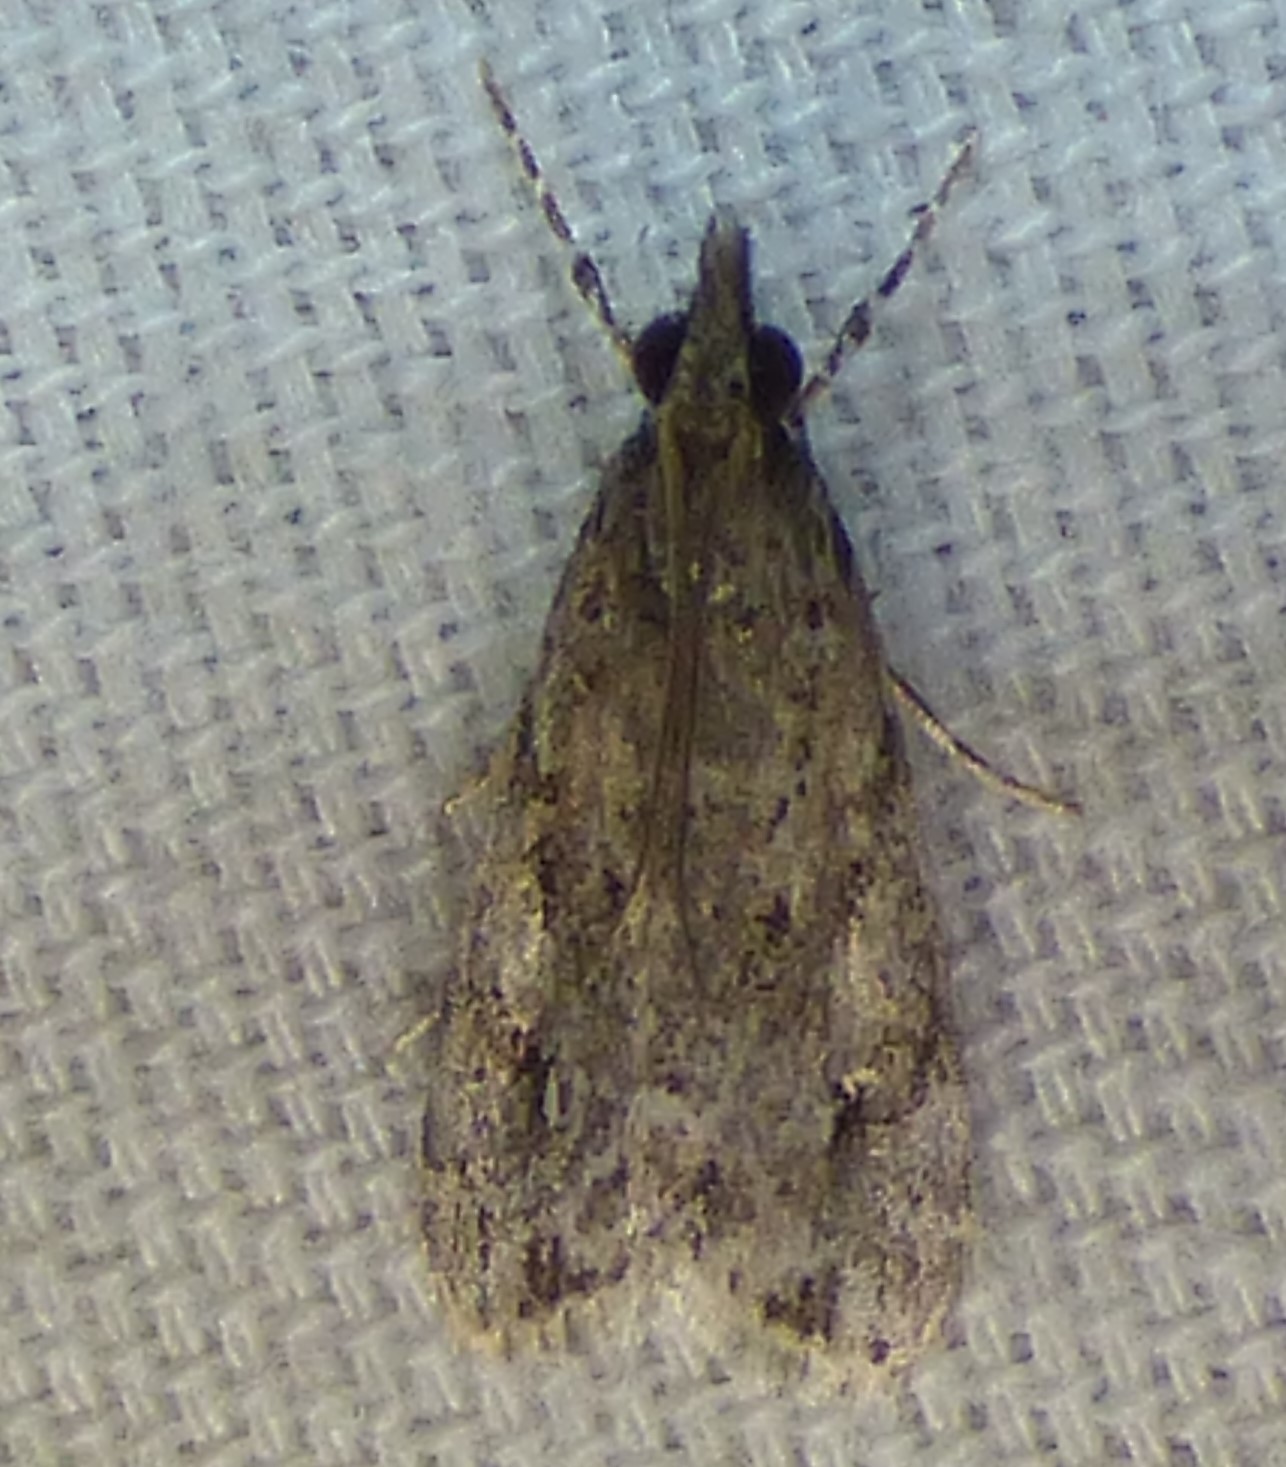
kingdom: Animalia
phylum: Arthropoda
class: Insecta
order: Lepidoptera
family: Crambidae
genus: Eudonia
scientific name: Eudonia heterosalis
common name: Mcdunnough's eudonia
